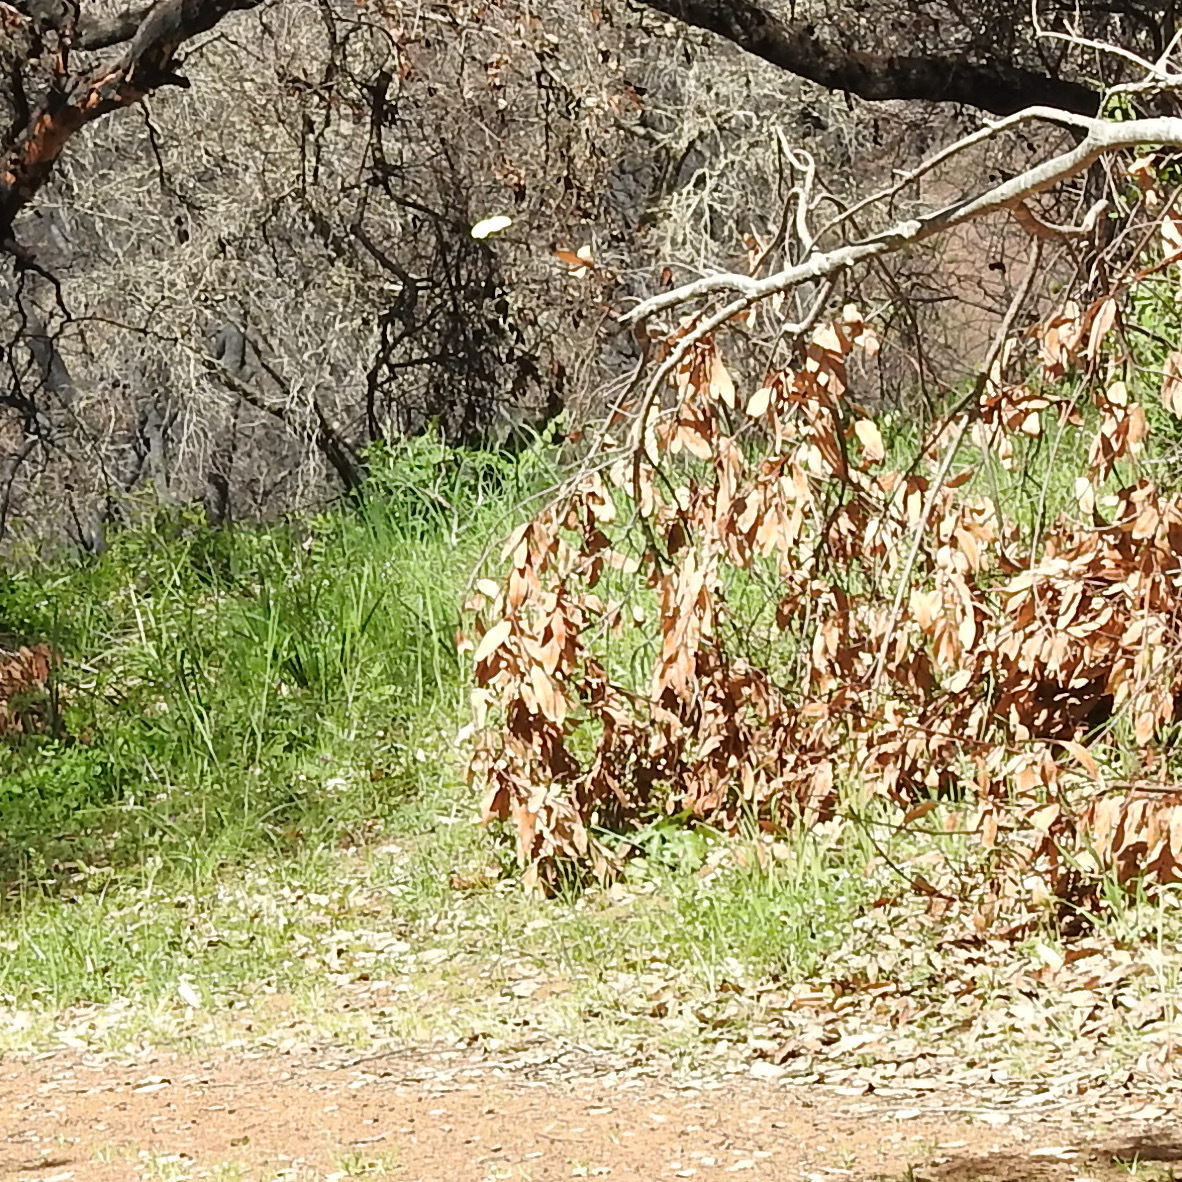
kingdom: Plantae
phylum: Tracheophyta
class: Magnoliopsida
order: Laurales
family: Lauraceae
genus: Umbellularia
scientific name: Umbellularia californica
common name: California bay
